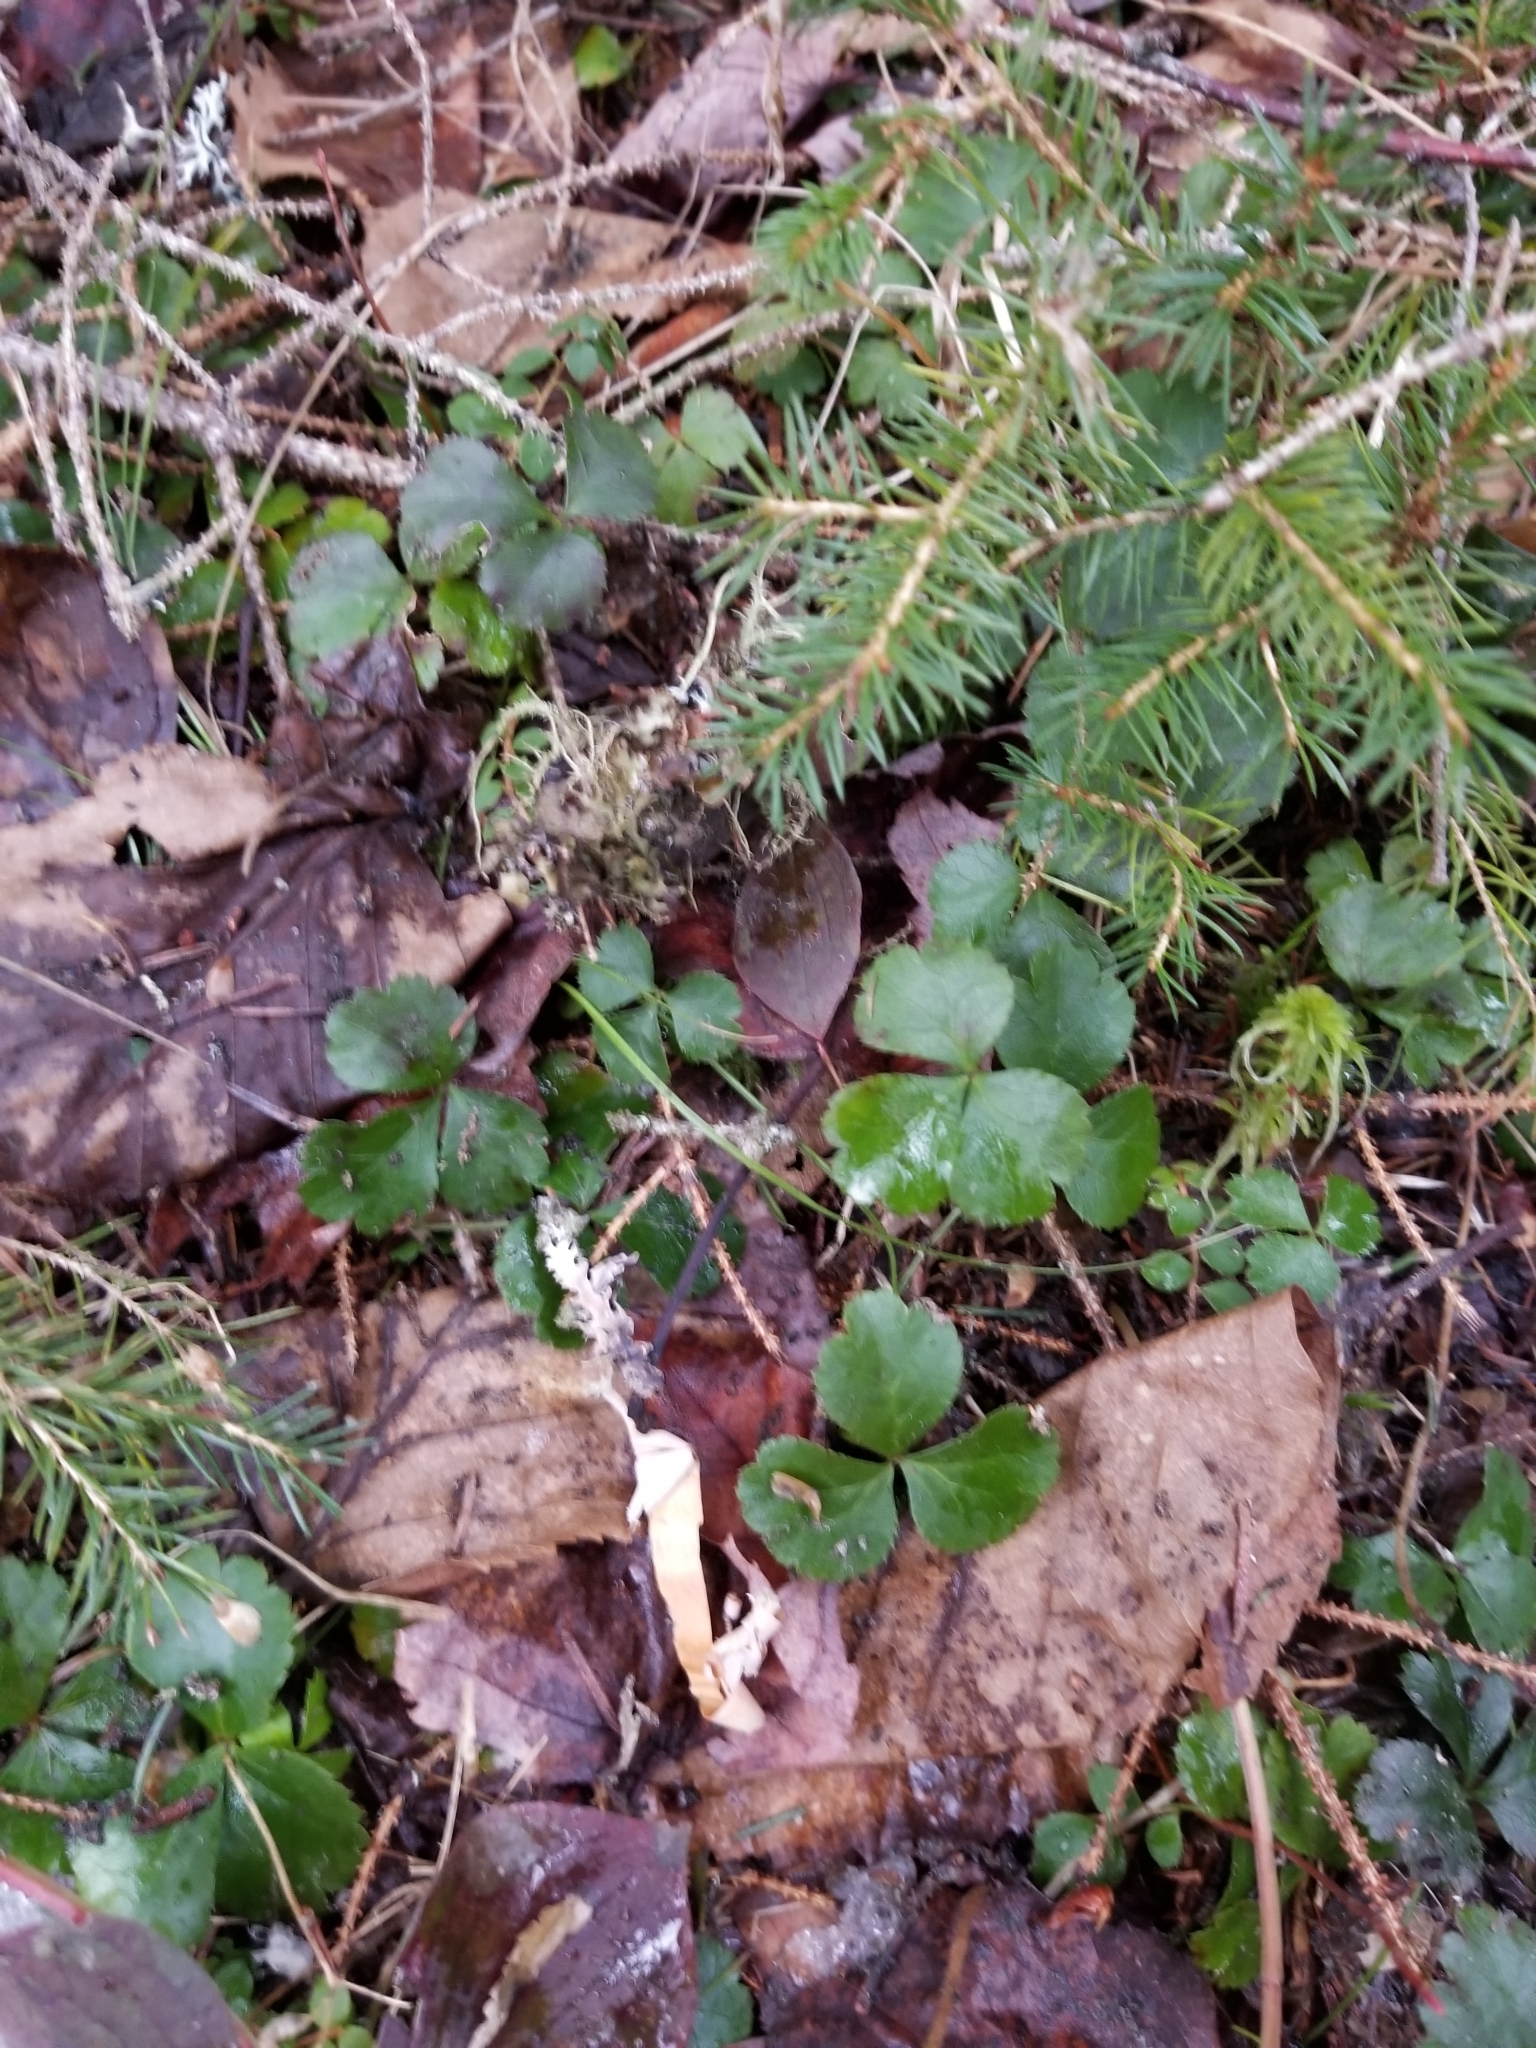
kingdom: Plantae
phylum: Tracheophyta
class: Magnoliopsida
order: Ranunculales
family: Ranunculaceae
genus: Coptis
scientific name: Coptis trifolia
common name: Canker-root
